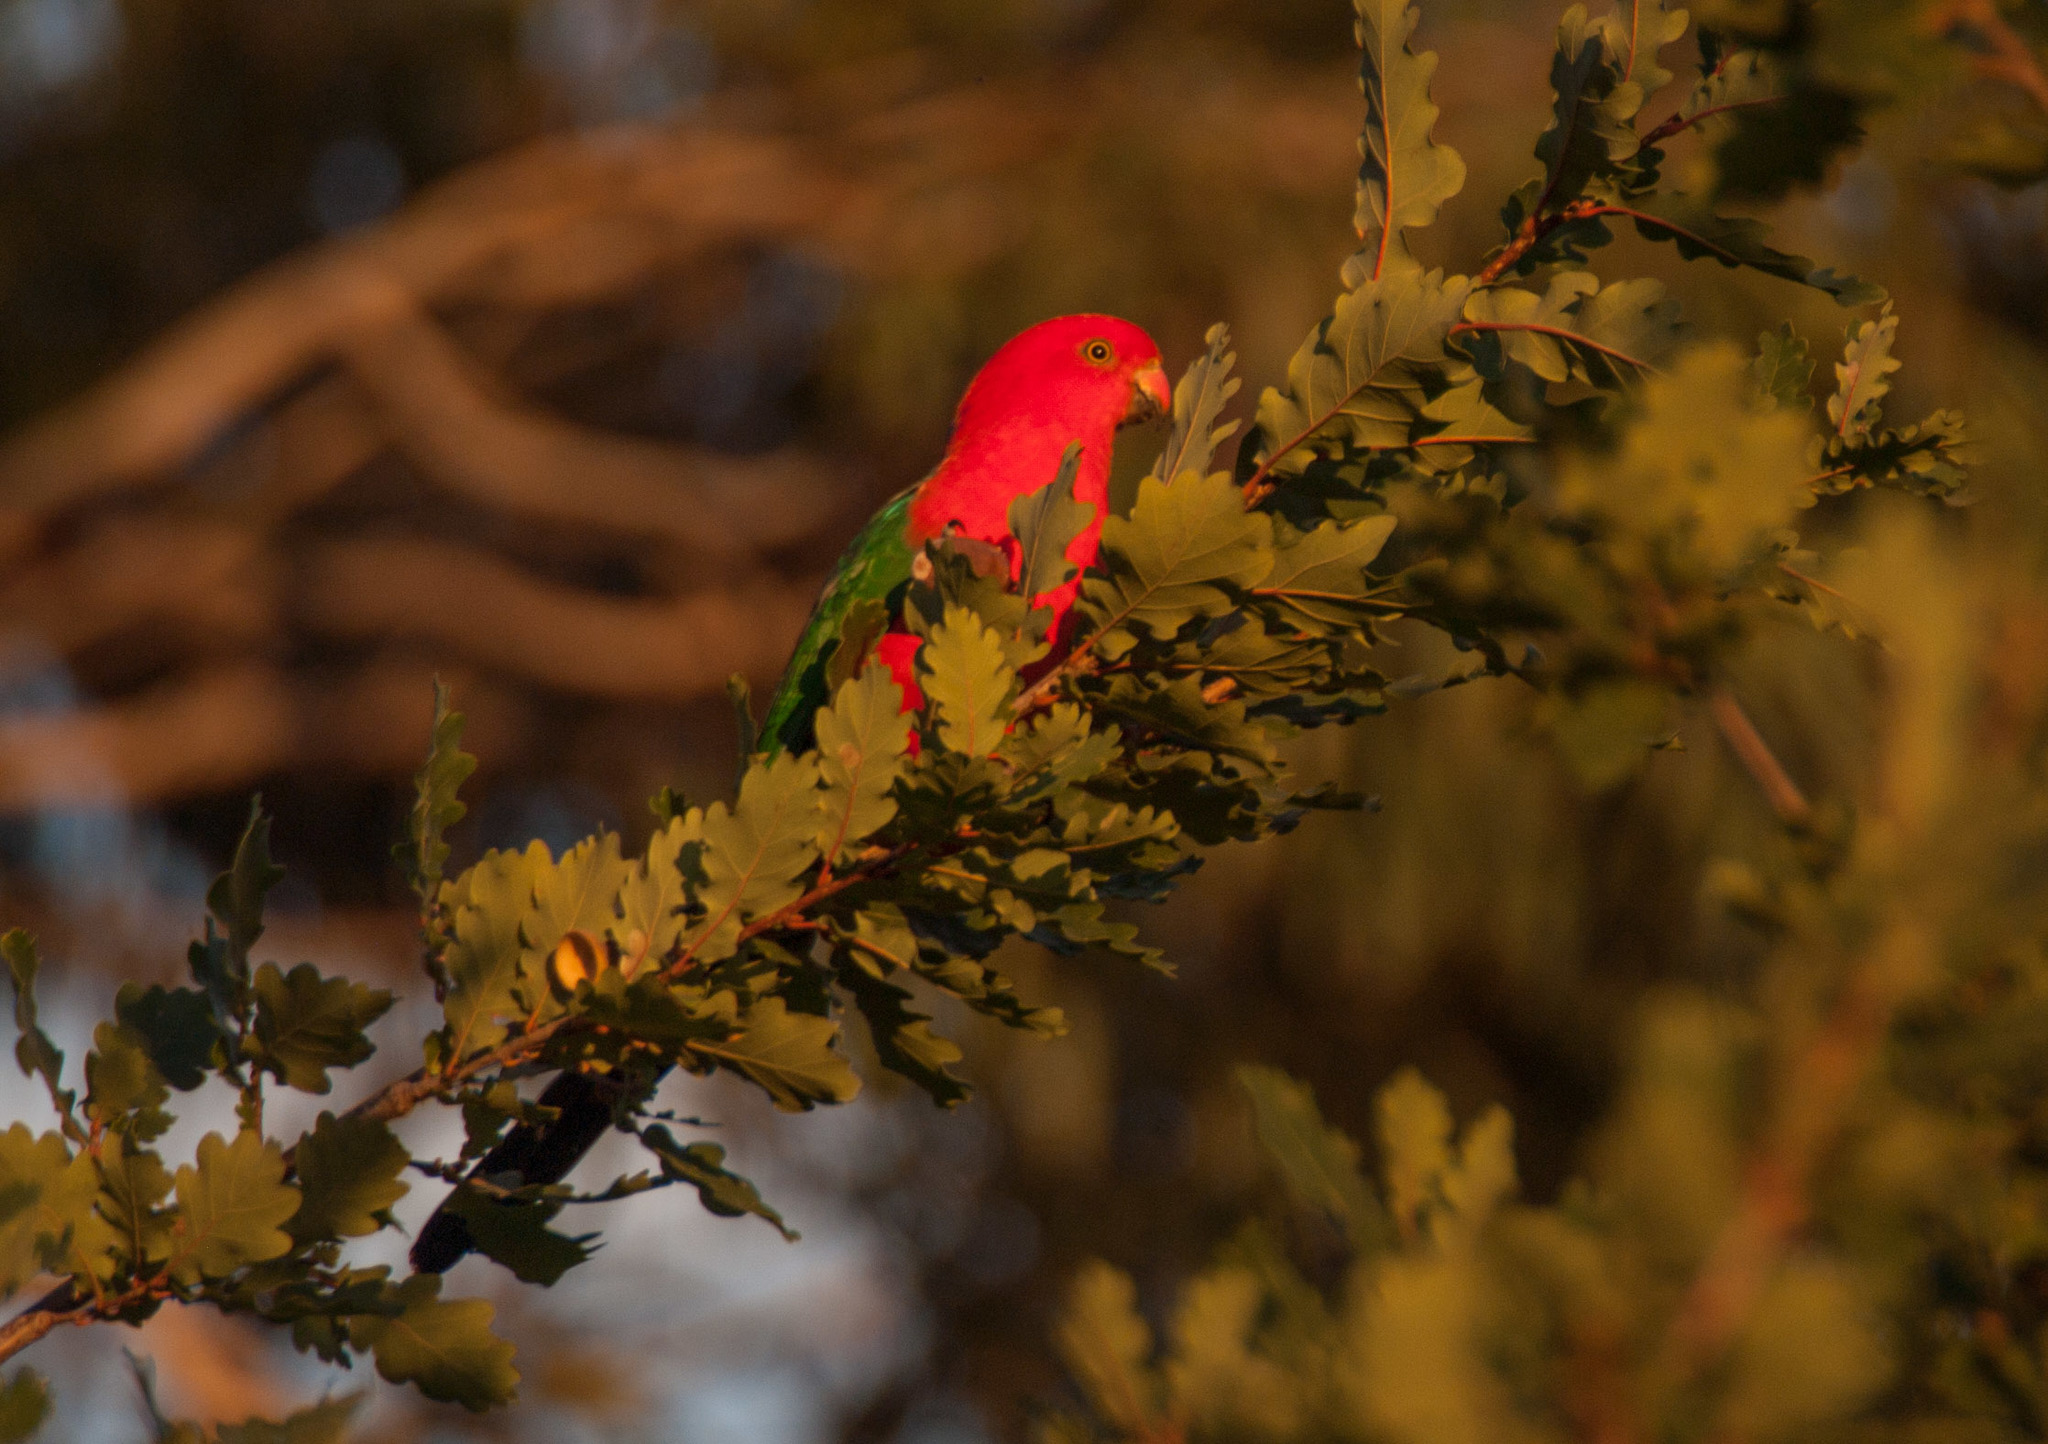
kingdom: Animalia
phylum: Chordata
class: Aves
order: Psittaciformes
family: Psittacidae
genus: Alisterus
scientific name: Alisterus scapularis
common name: Australian king parrot
